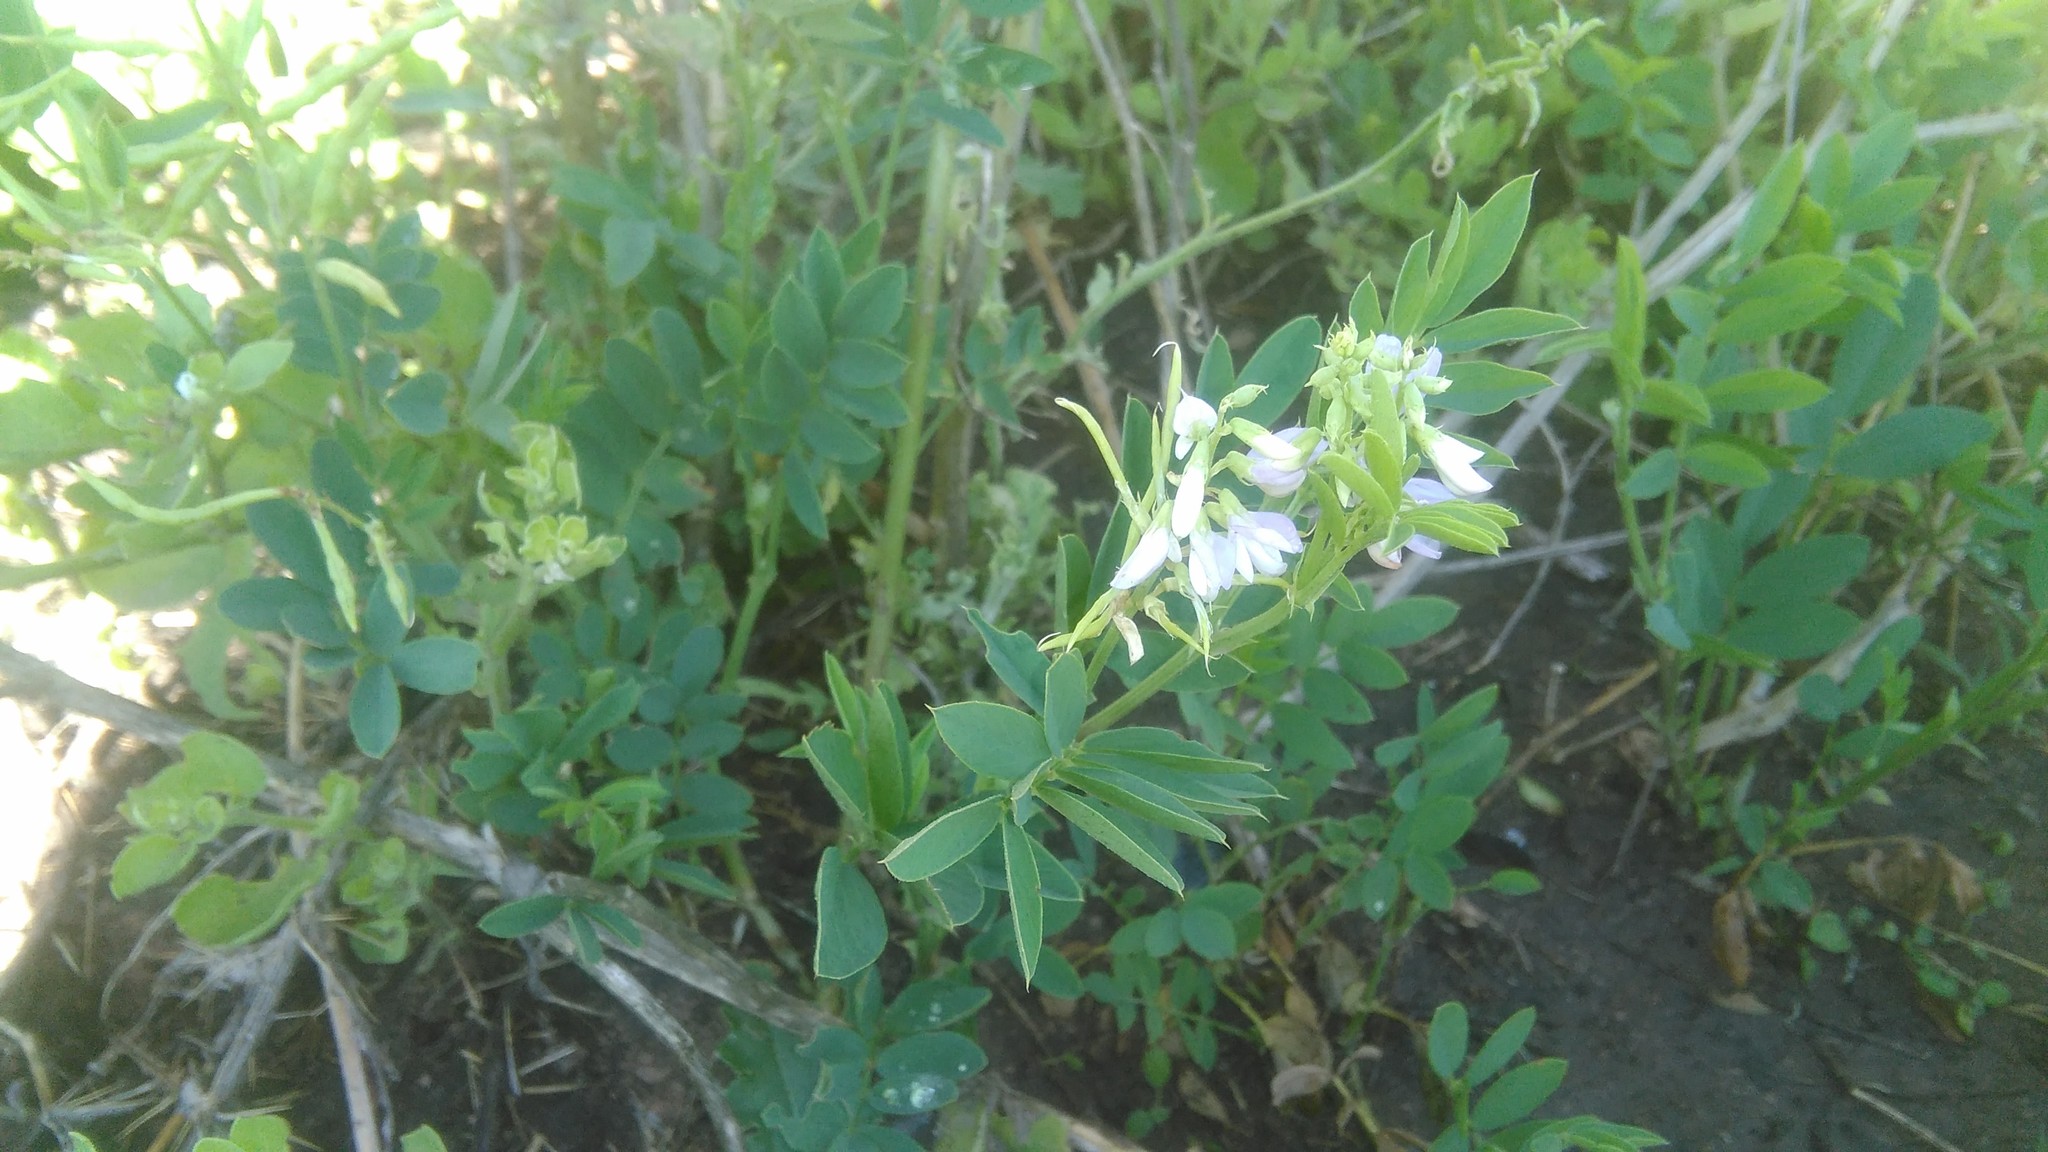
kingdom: Plantae
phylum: Tracheophyta
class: Magnoliopsida
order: Fabales
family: Fabaceae
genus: Galega
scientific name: Galega officinalis
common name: Goat's-rue
